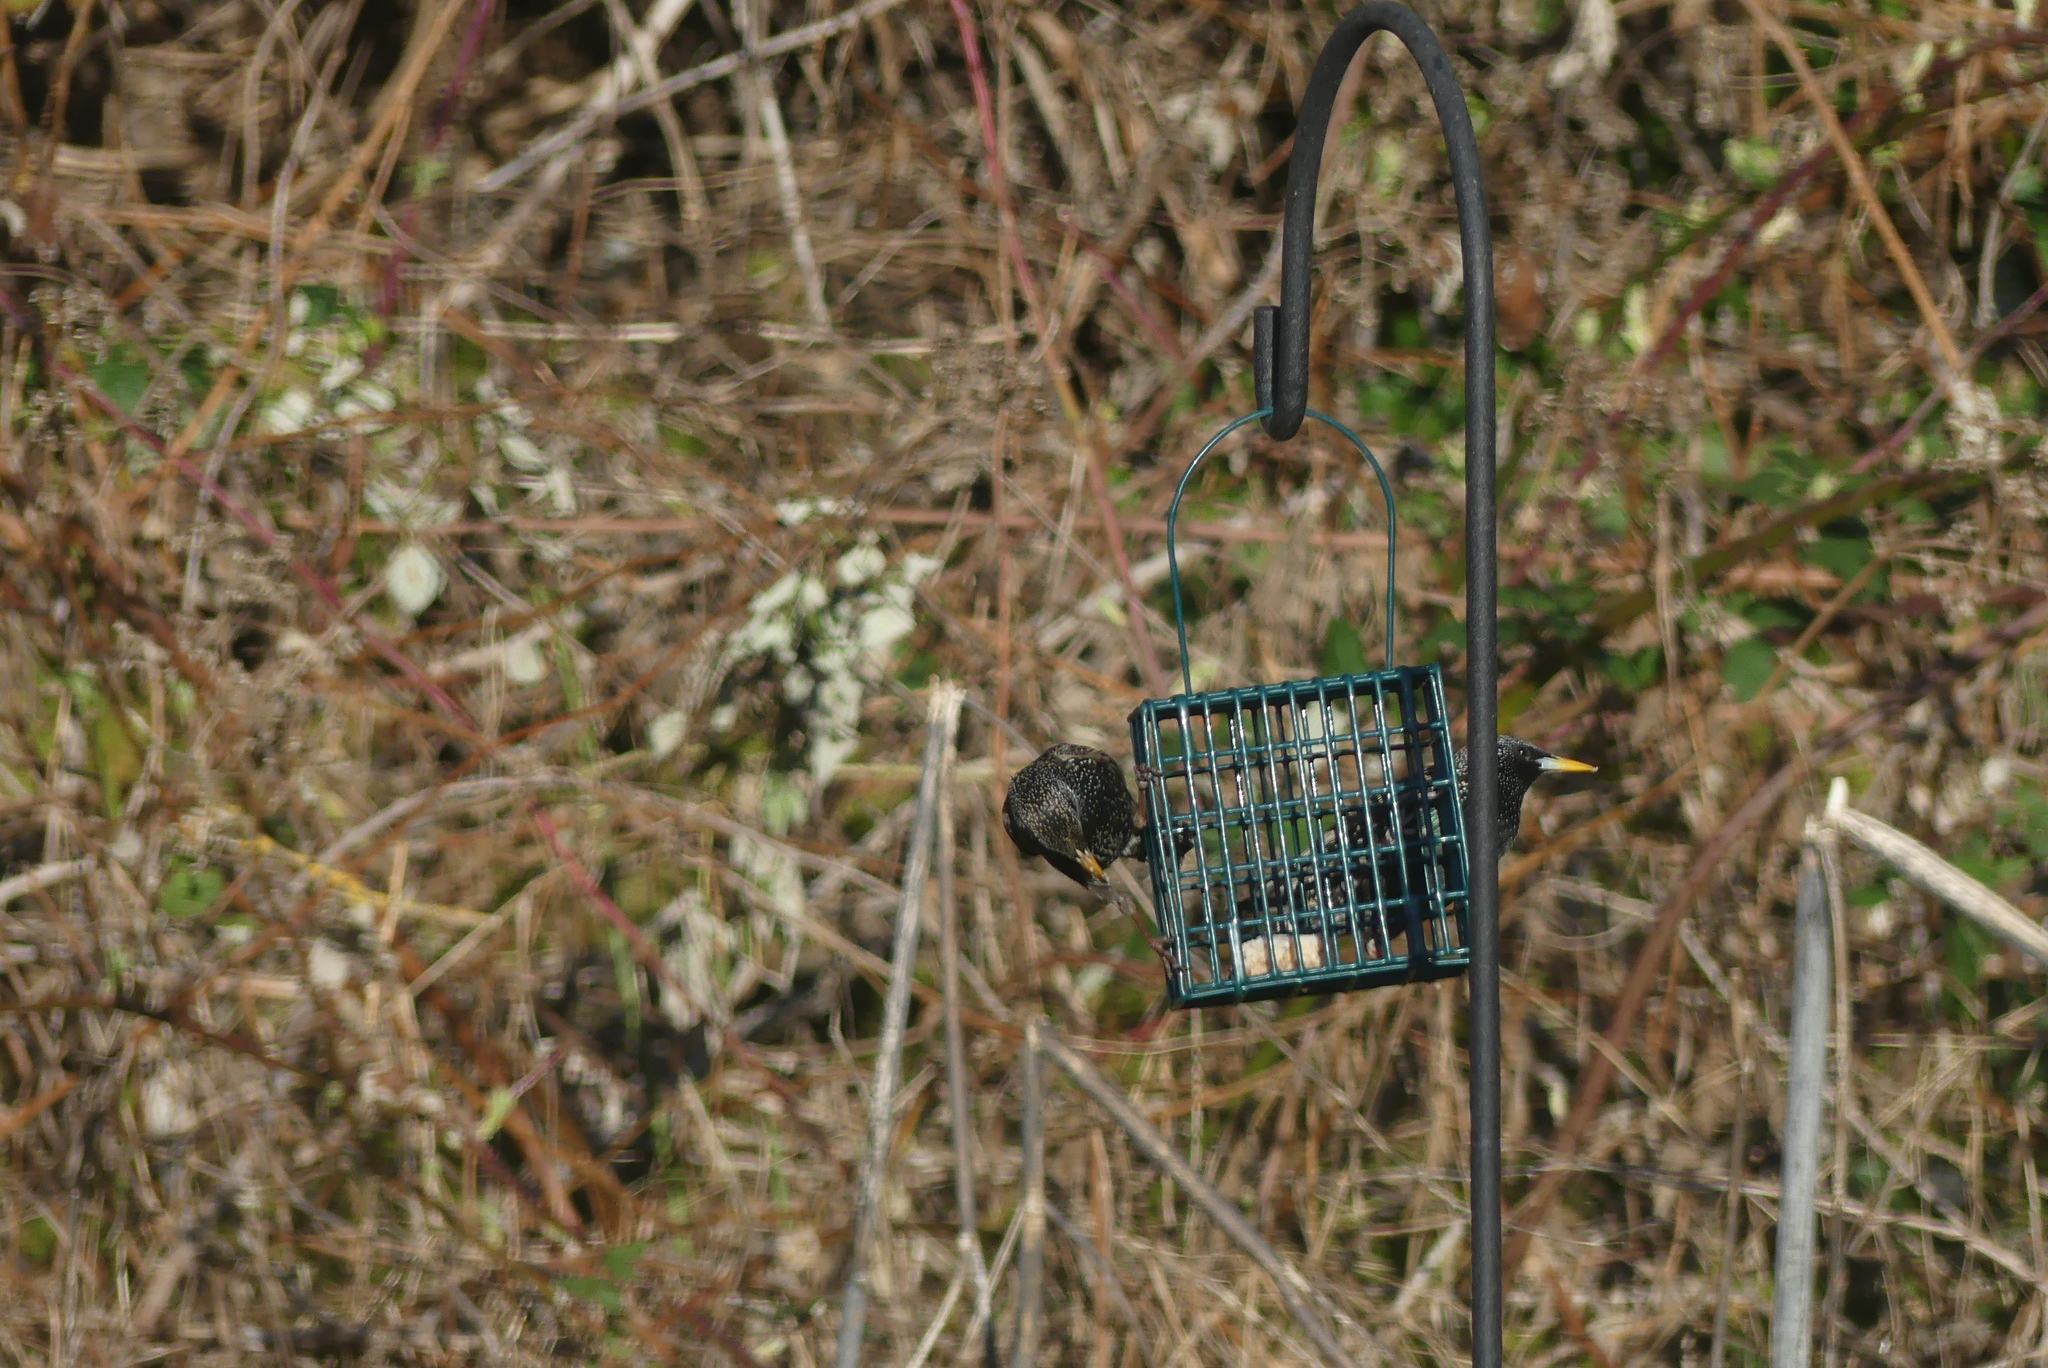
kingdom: Animalia
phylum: Chordata
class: Aves
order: Passeriformes
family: Sturnidae
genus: Sturnus
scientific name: Sturnus vulgaris
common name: Common starling
